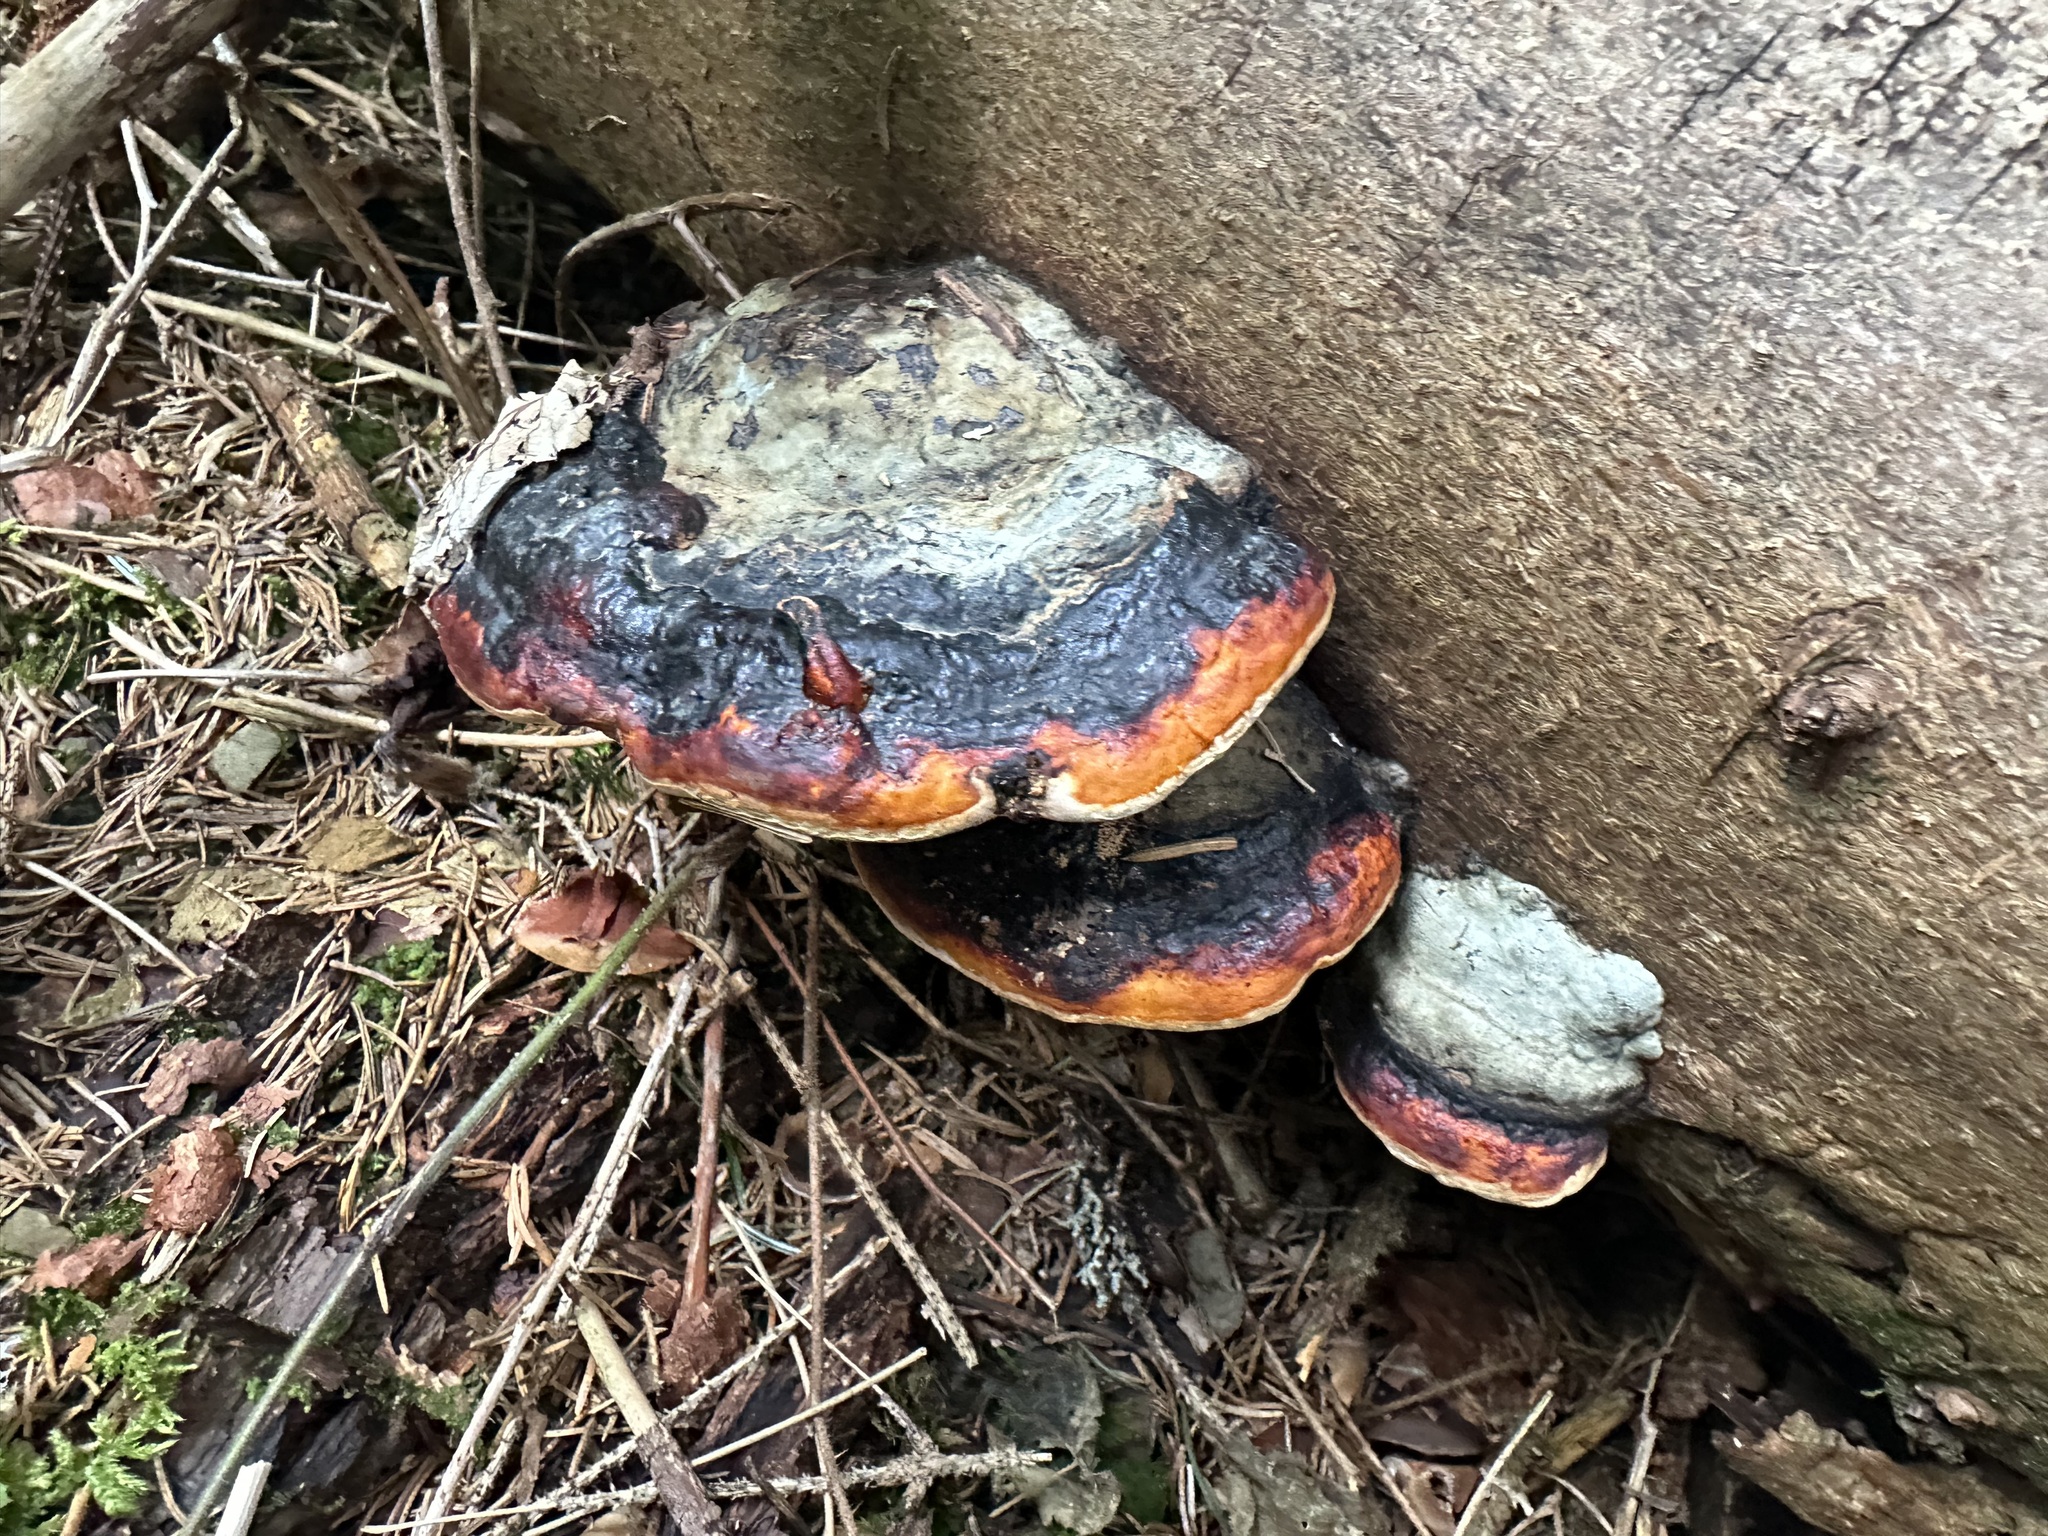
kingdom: Fungi
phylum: Basidiomycota
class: Agaricomycetes
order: Polyporales
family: Fomitopsidaceae
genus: Fomitopsis
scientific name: Fomitopsis pinicola
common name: Red-belted bracket
